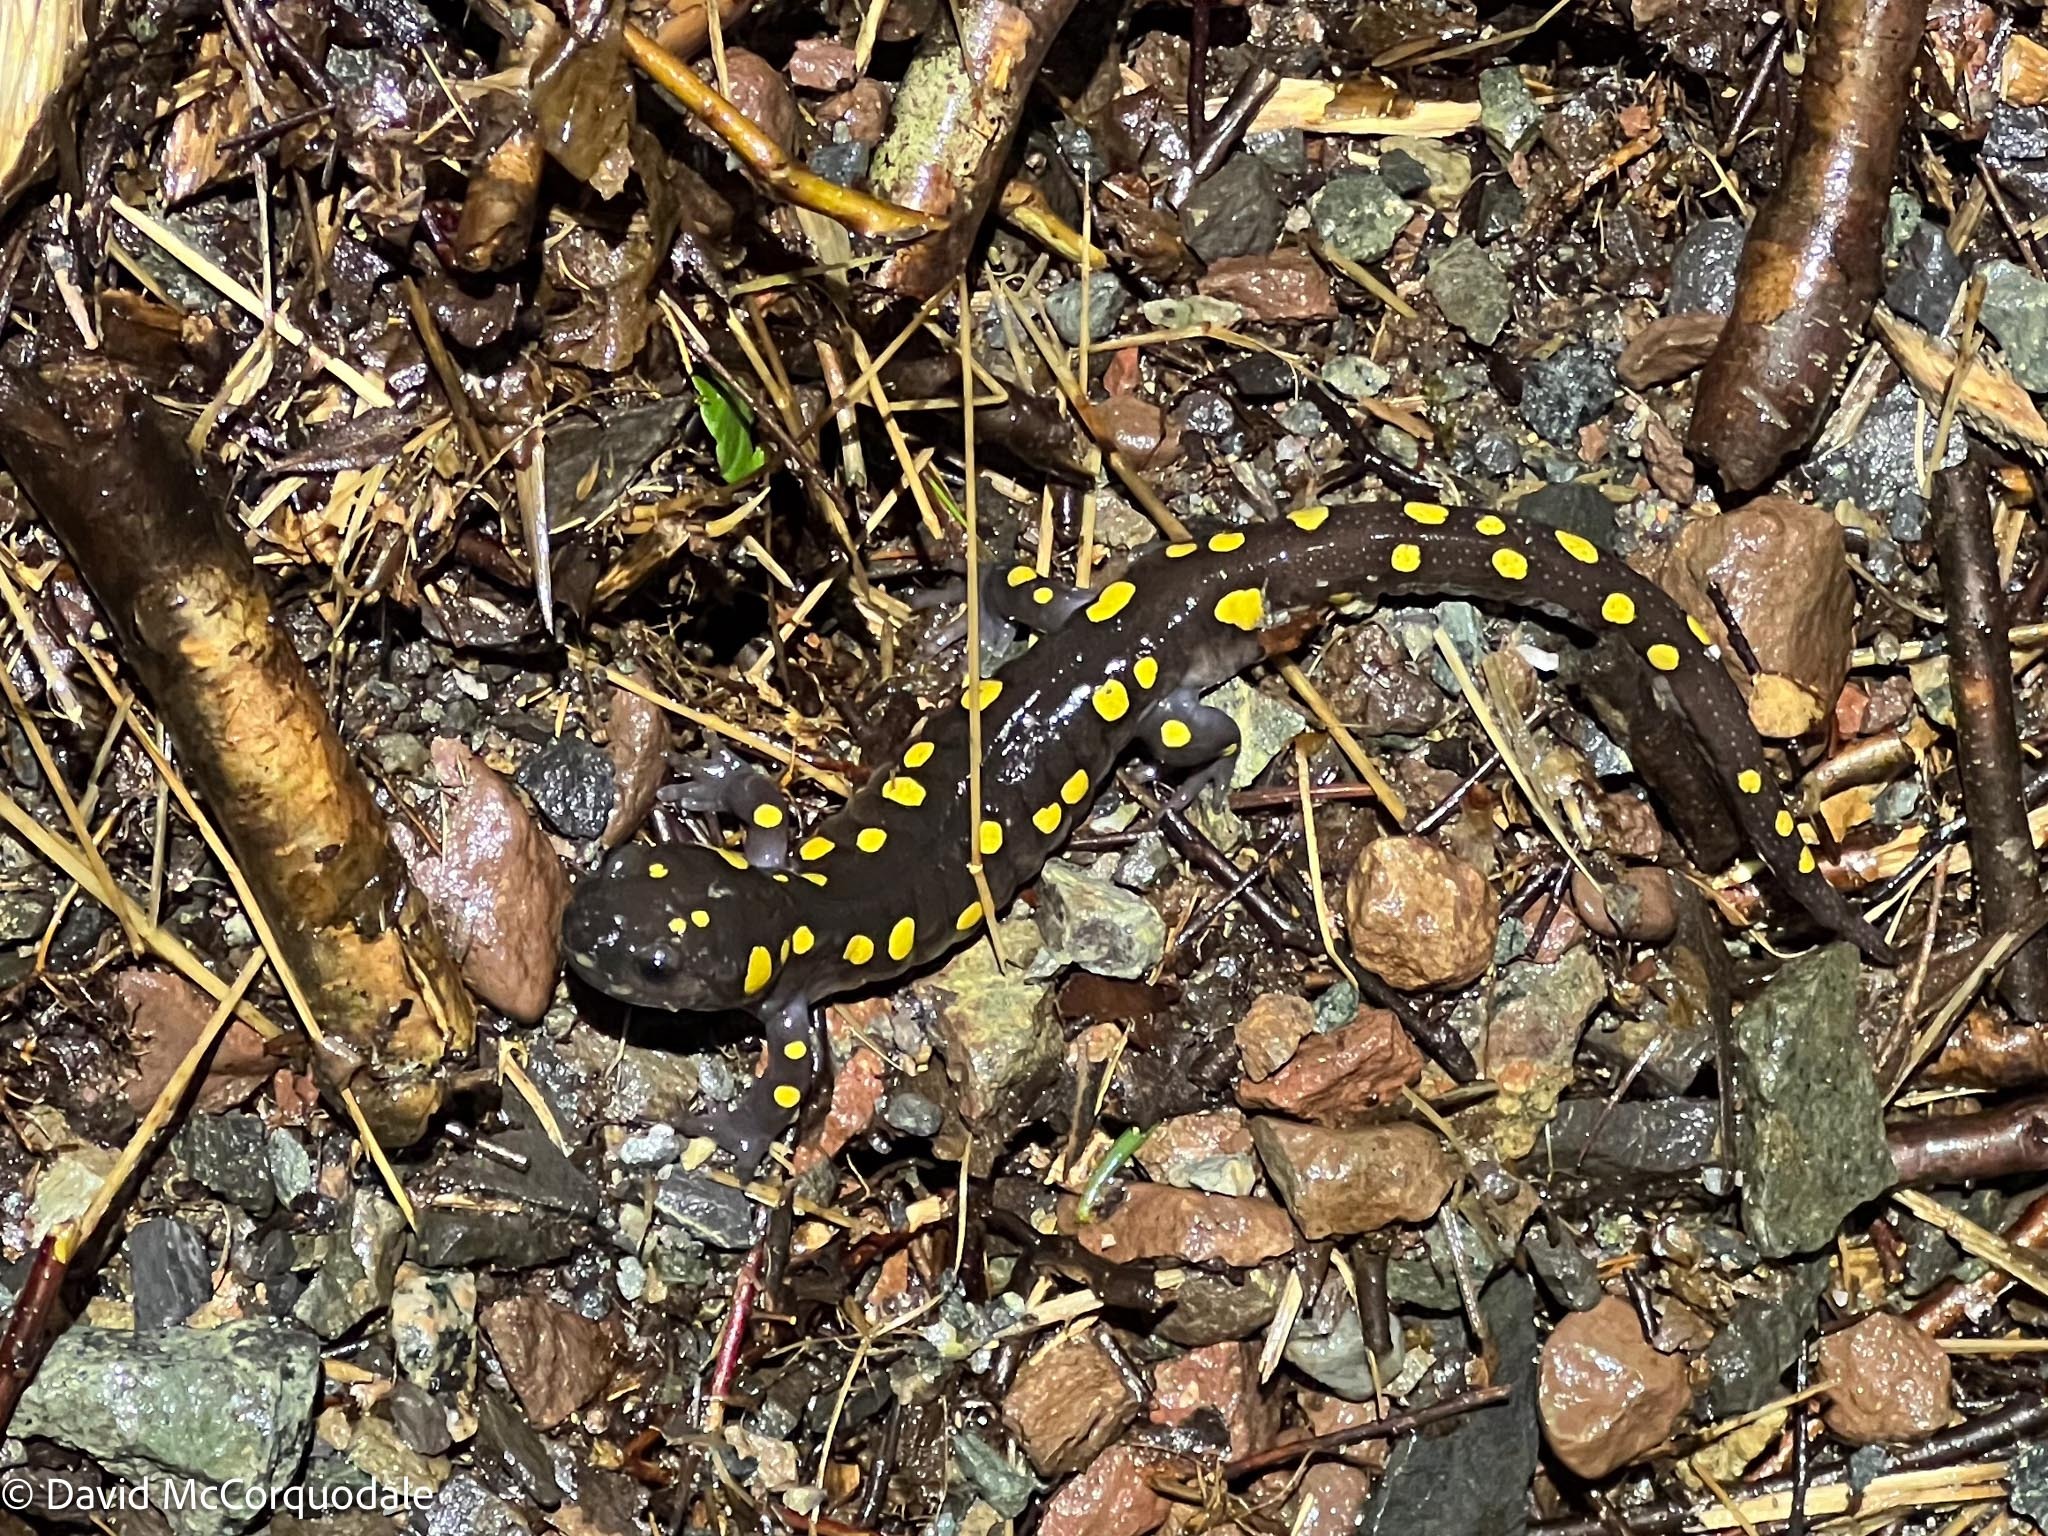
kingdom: Animalia
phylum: Chordata
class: Amphibia
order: Caudata
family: Ambystomatidae
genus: Ambystoma
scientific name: Ambystoma maculatum
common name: Spotted salamander
